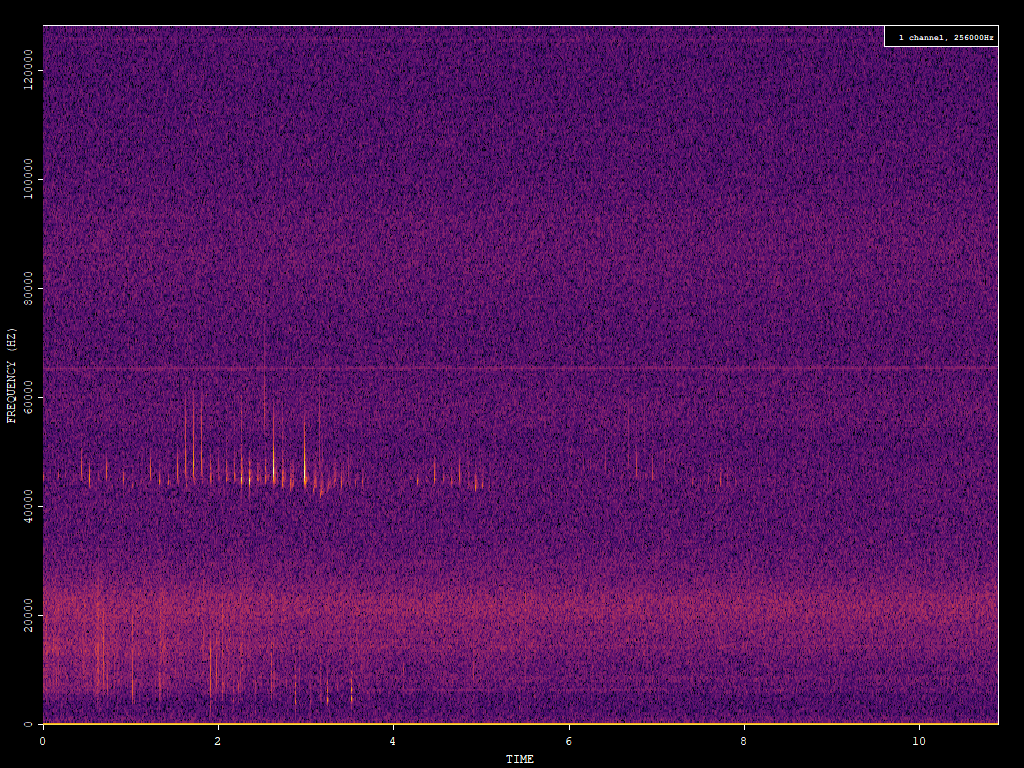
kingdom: Animalia
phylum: Chordata
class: Mammalia
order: Chiroptera
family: Vespertilionidae
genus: Pipistrellus
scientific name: Pipistrellus pipistrellus
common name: Common pipistrelle
